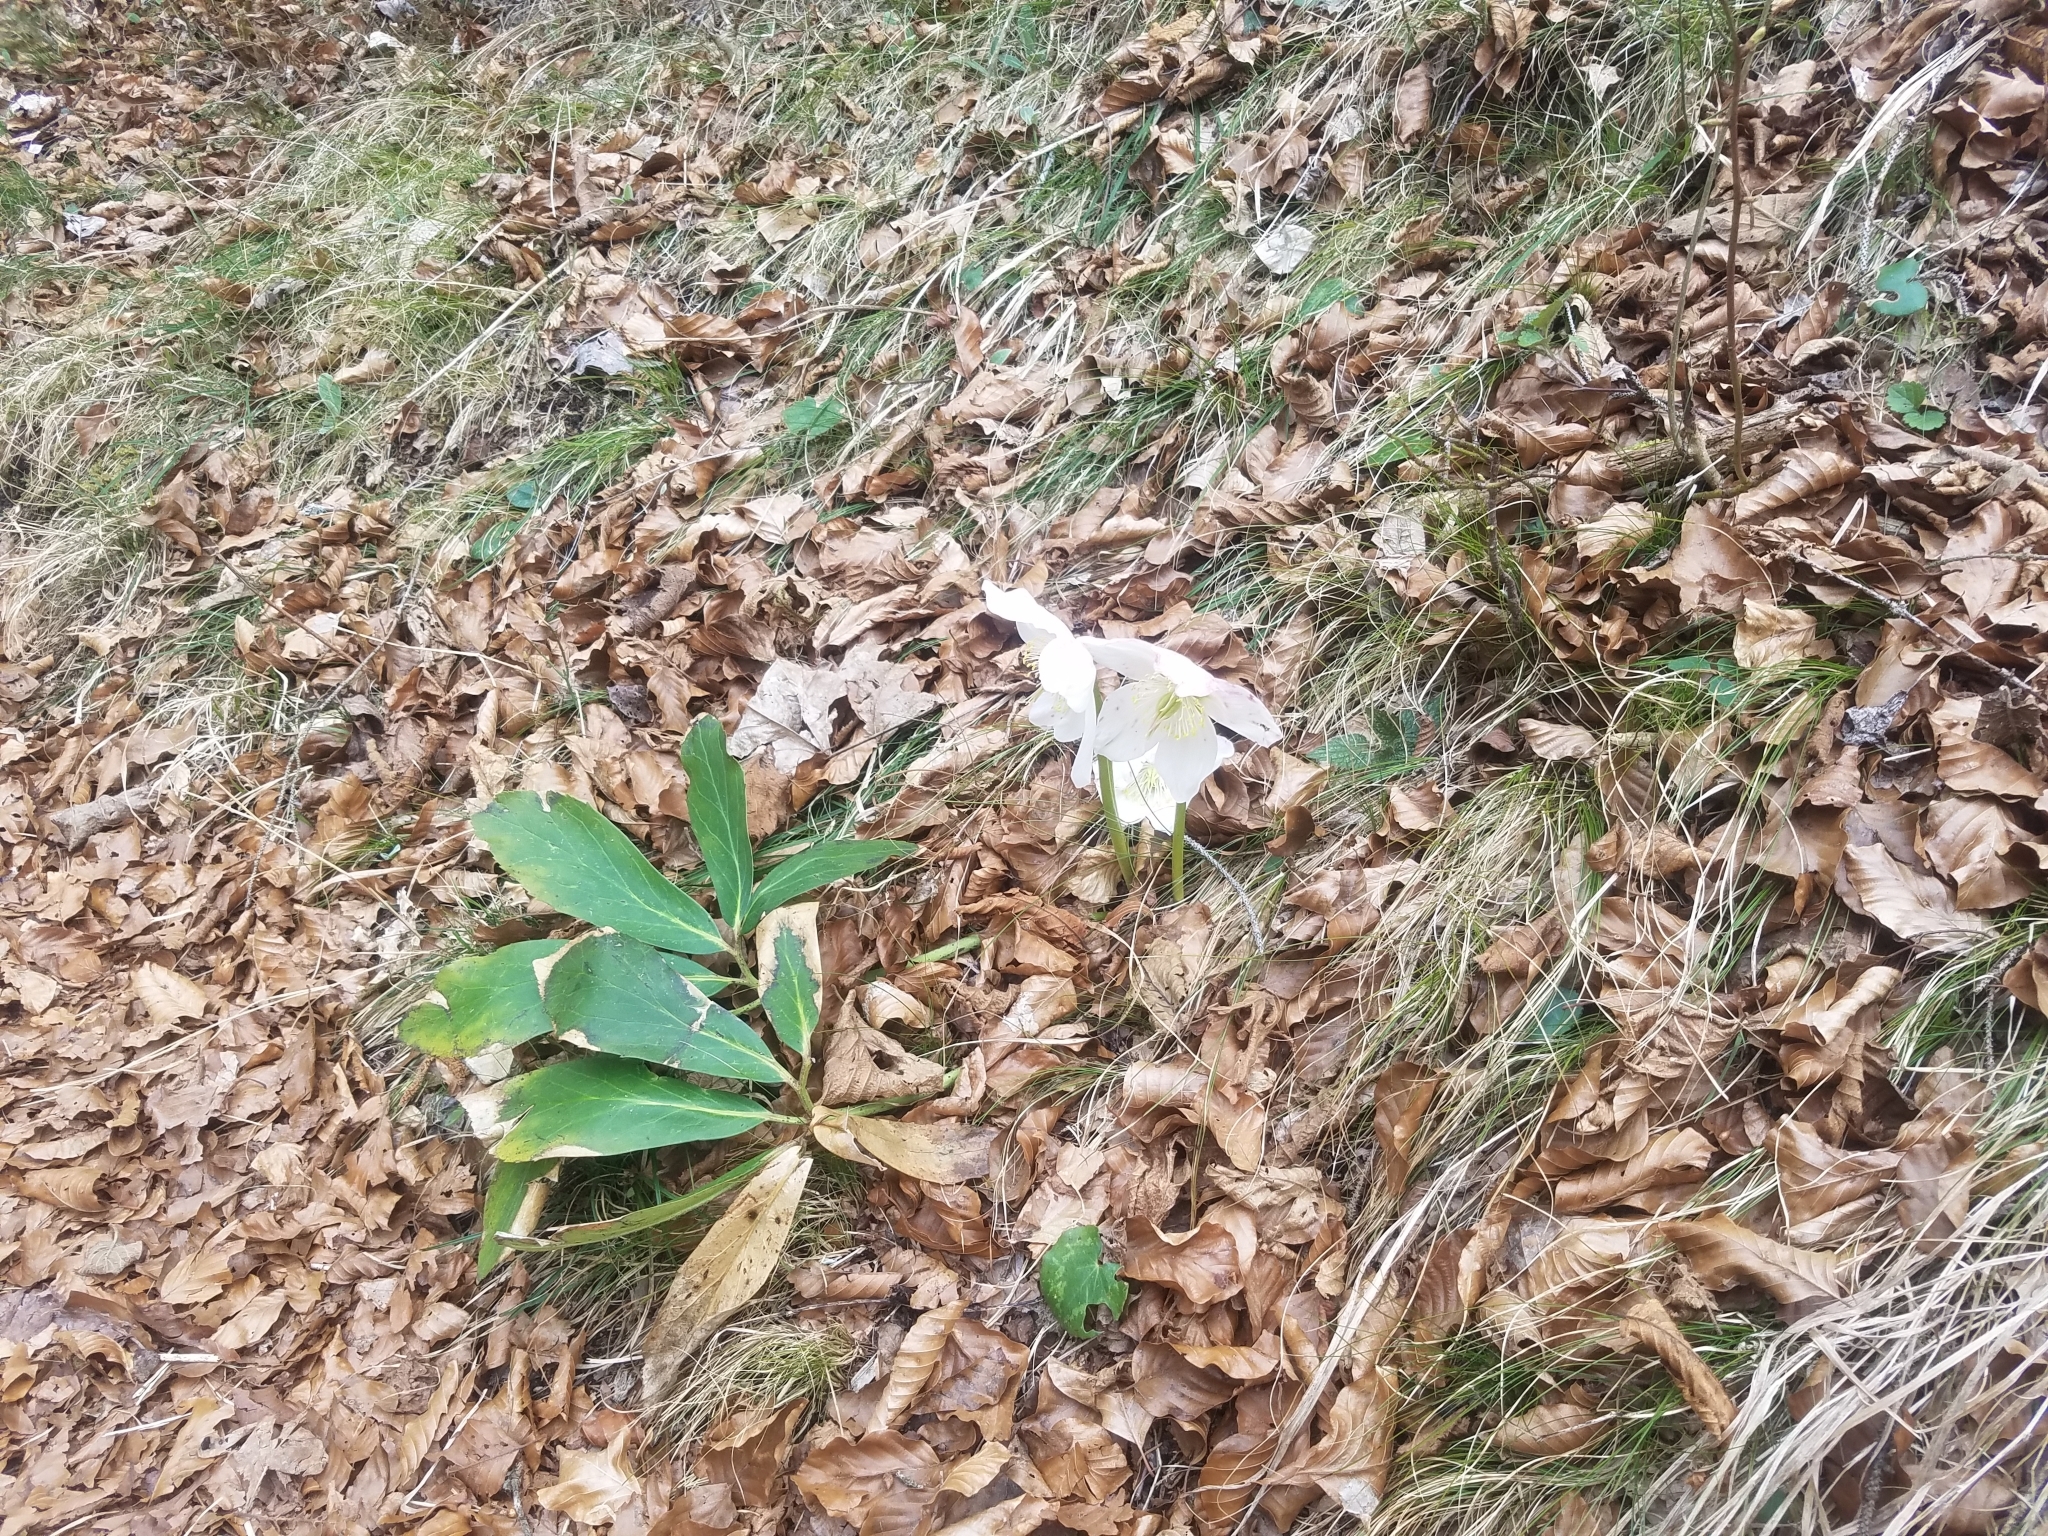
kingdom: Plantae
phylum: Tracheophyta
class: Magnoliopsida
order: Ranunculales
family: Ranunculaceae
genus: Helleborus
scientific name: Helleborus niger
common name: Black hellebore
